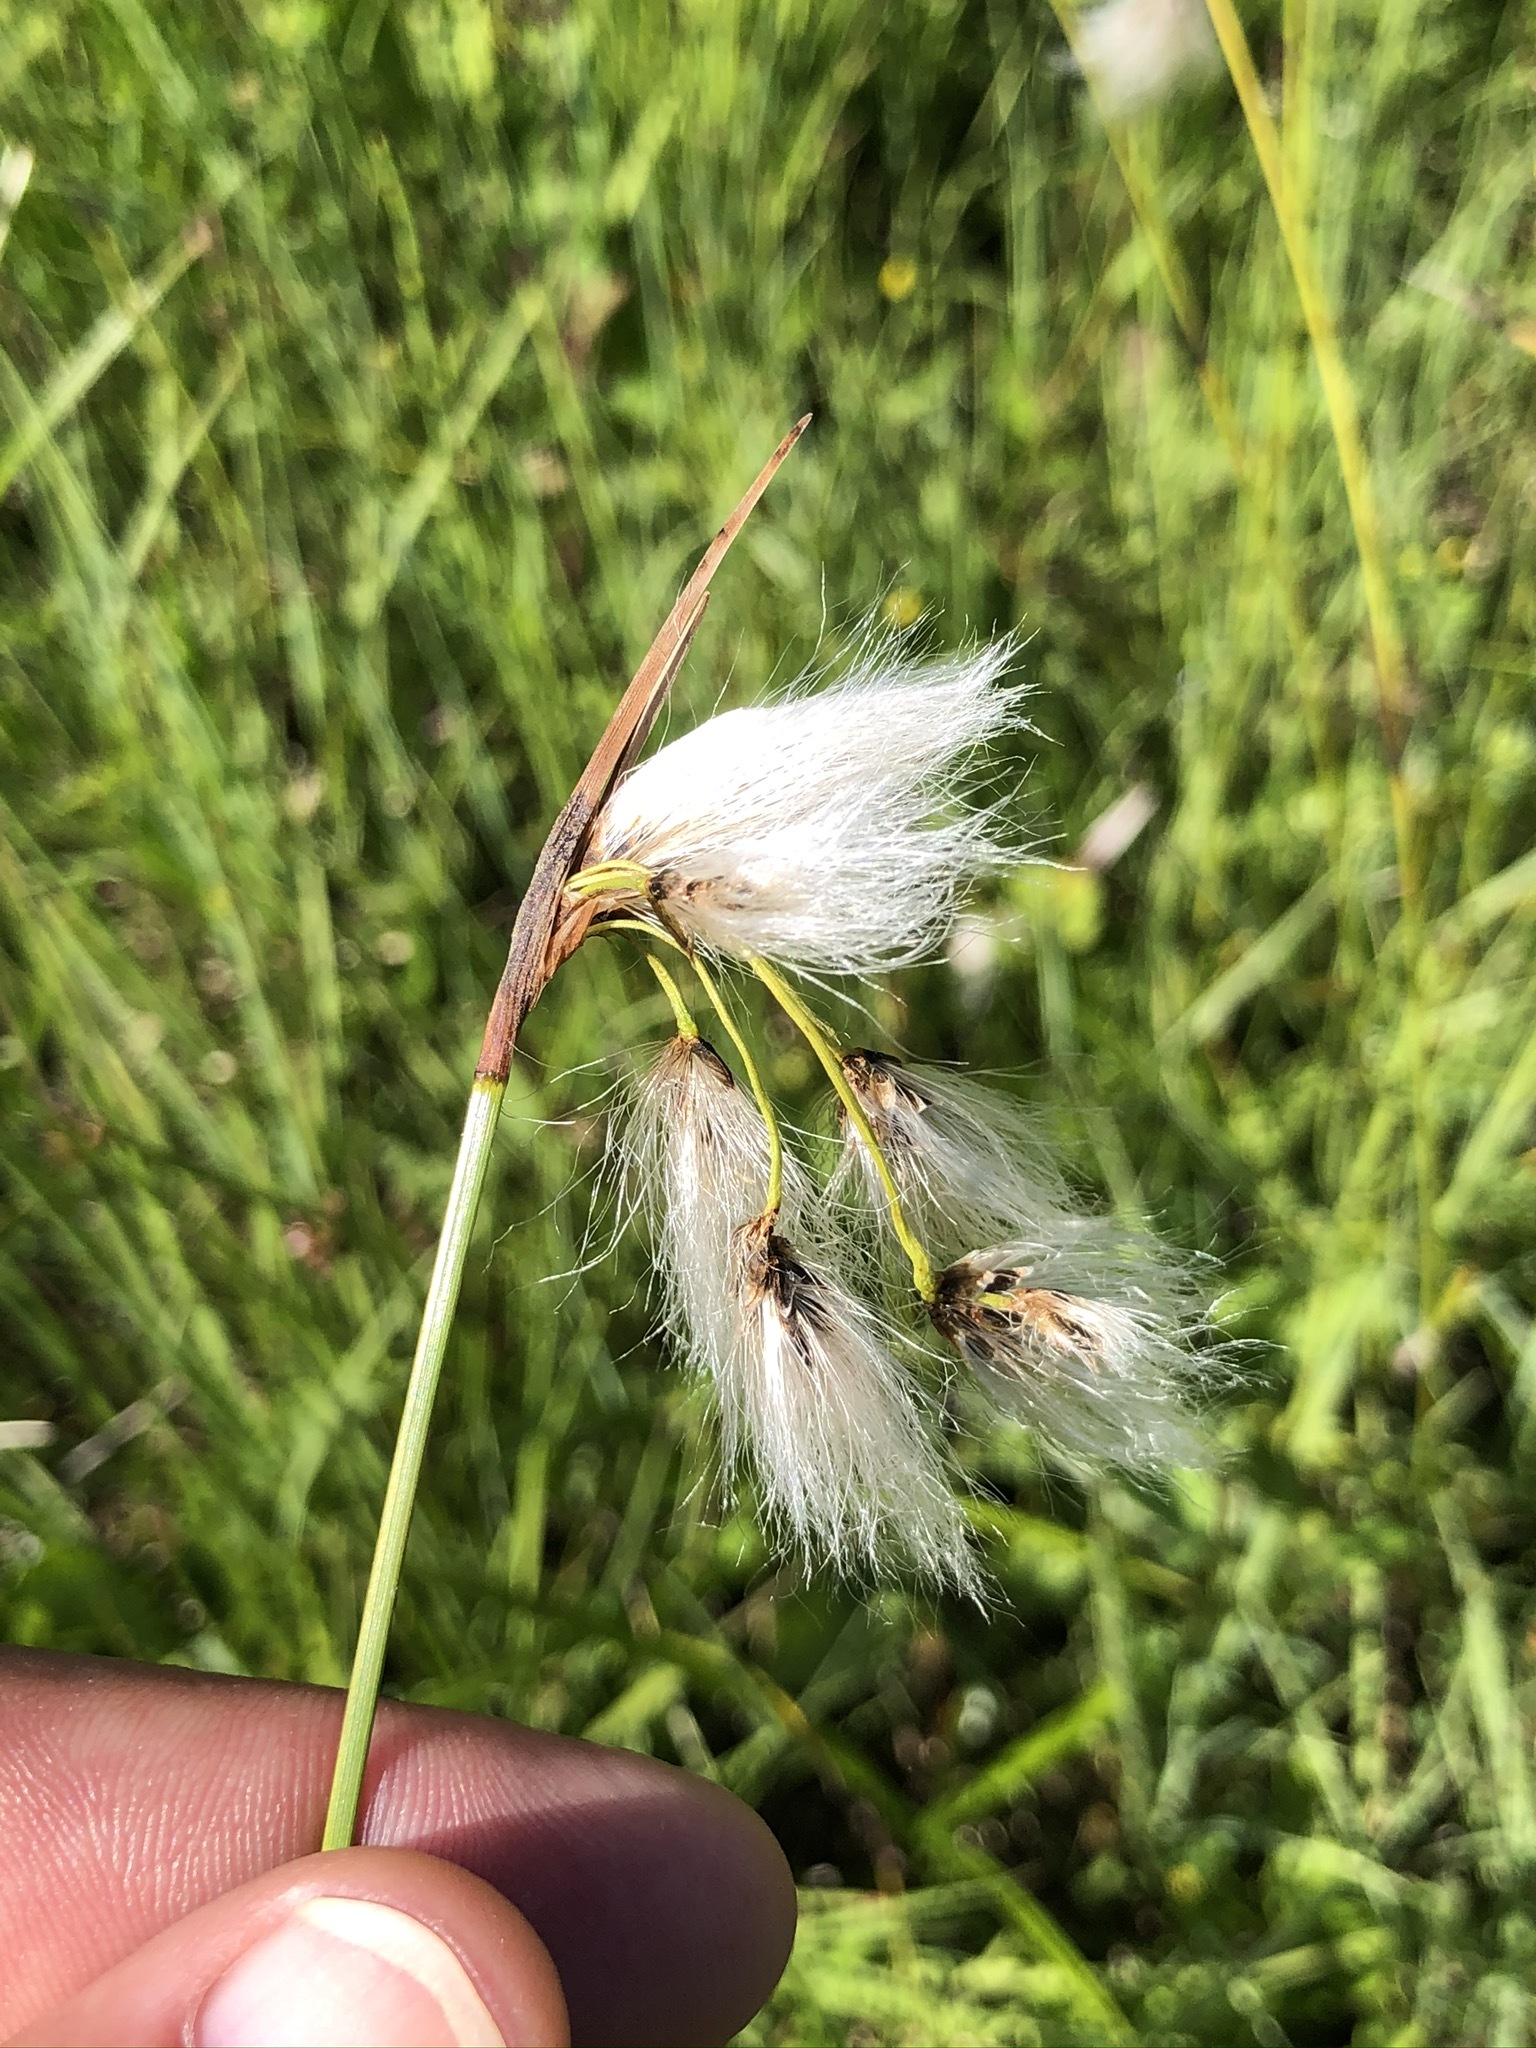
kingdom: Plantae
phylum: Tracheophyta
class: Liliopsida
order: Poales
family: Cyperaceae
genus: Eriophorum
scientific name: Eriophorum latifolium
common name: Broad-leaved cottongrass
